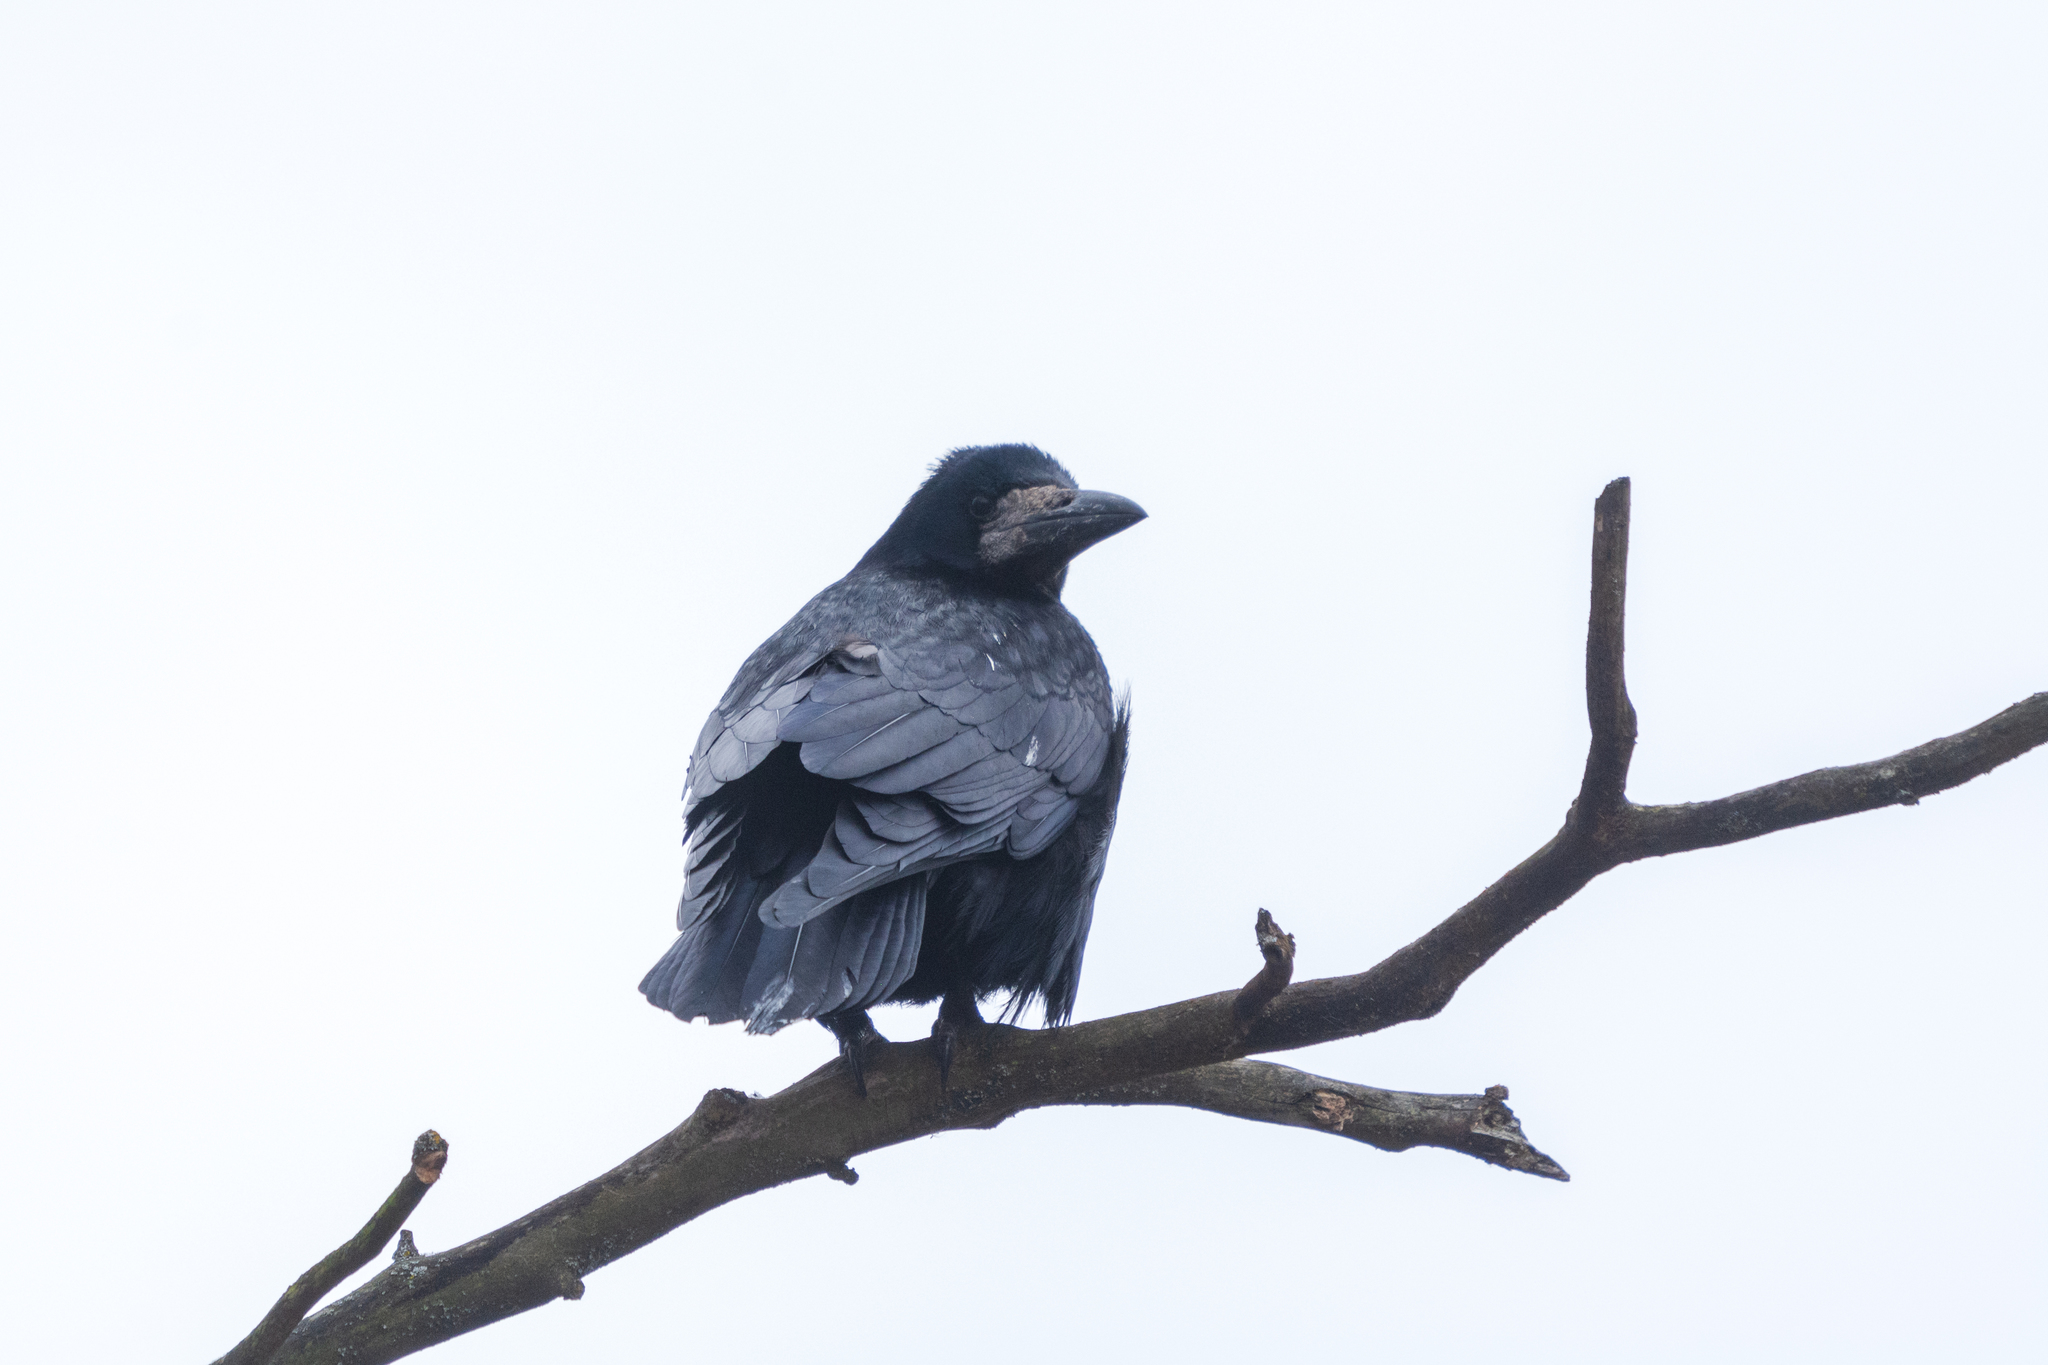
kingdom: Animalia
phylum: Chordata
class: Aves
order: Passeriformes
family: Corvidae
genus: Corvus
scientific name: Corvus frugilegus
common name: Rook
